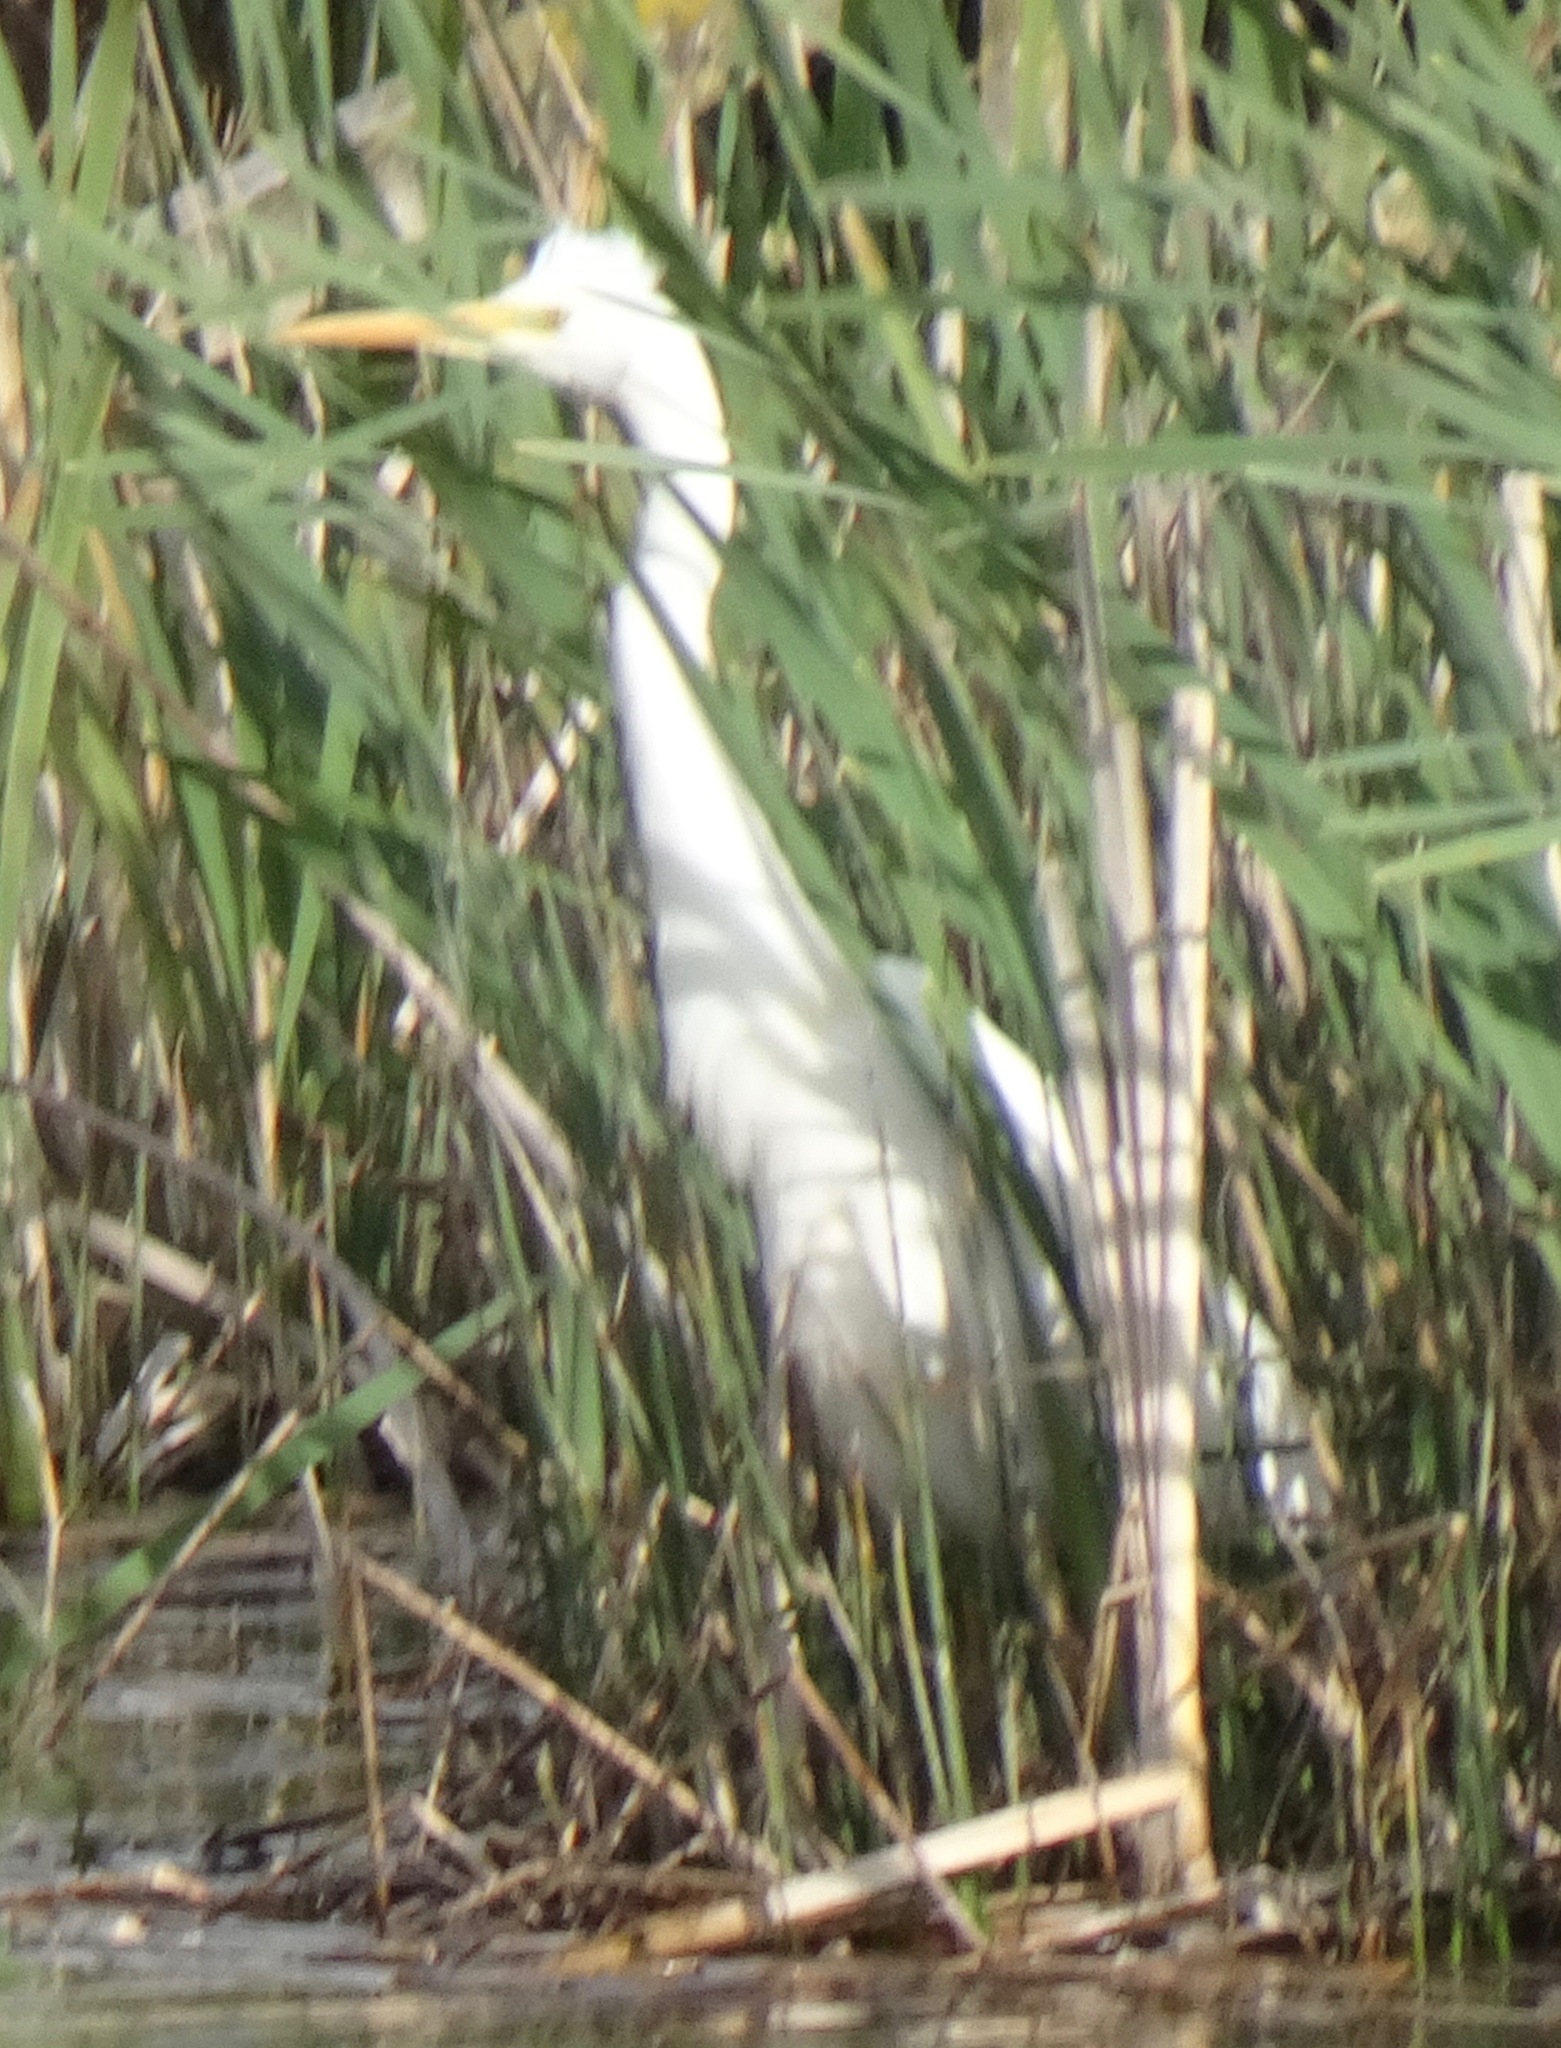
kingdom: Animalia
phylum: Chordata
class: Aves
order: Pelecaniformes
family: Ardeidae
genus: Ardea
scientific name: Ardea alba
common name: Great egret
